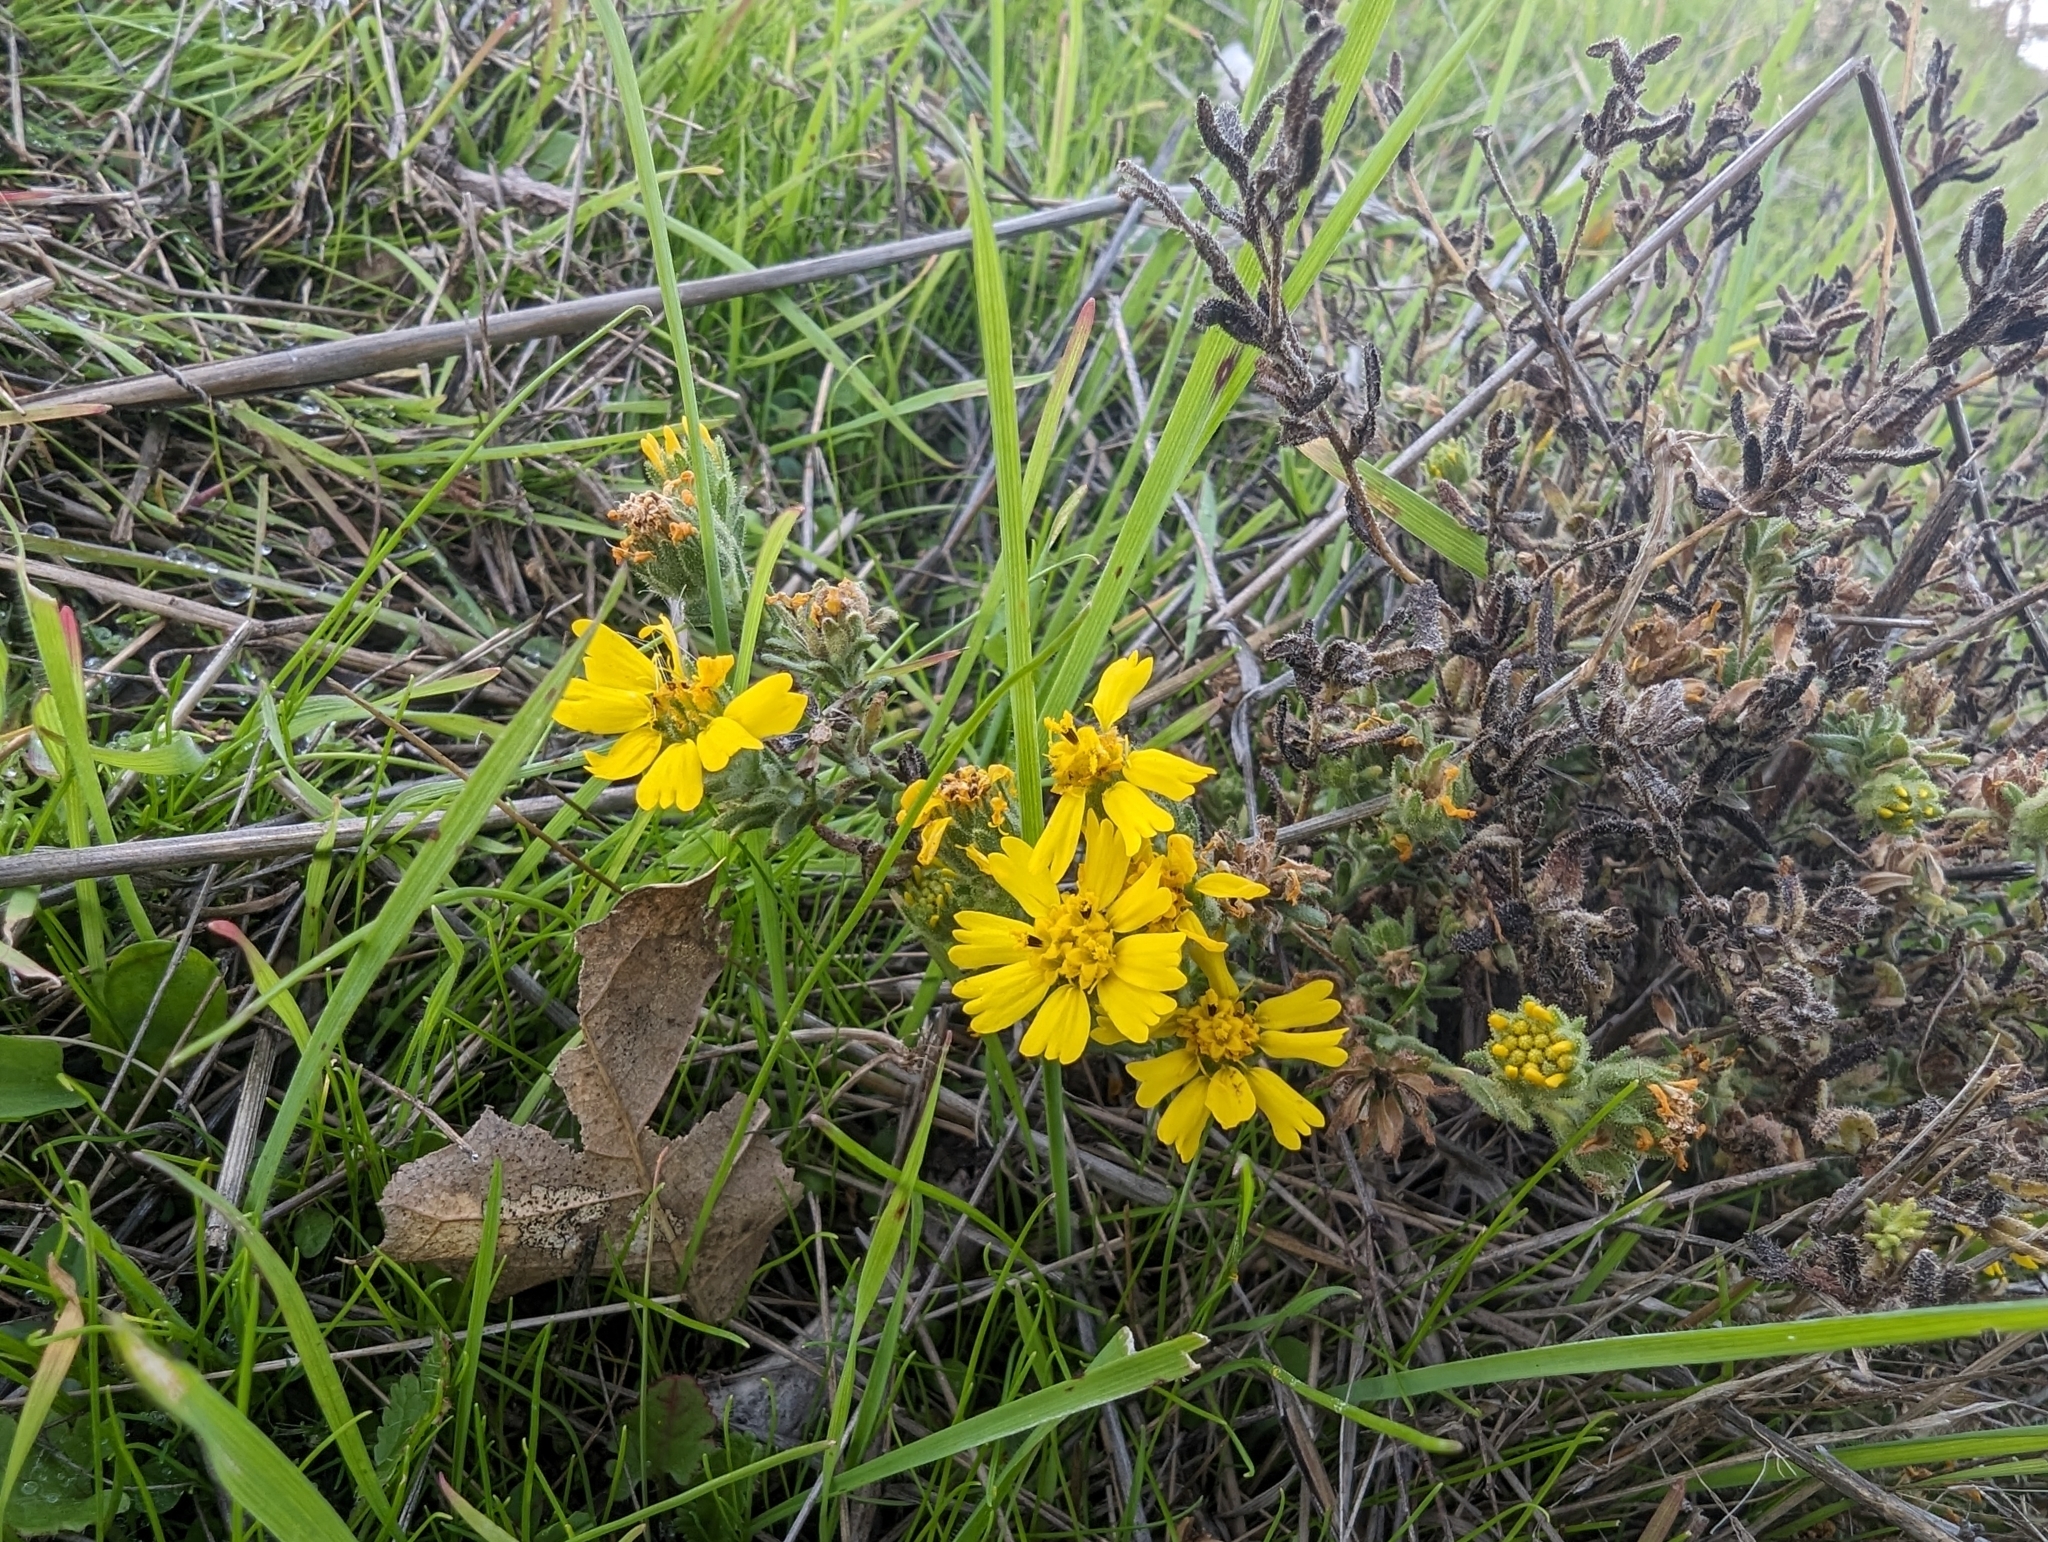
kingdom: Plantae
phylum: Tracheophyta
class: Magnoliopsida
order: Asterales
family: Asteraceae
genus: Deinandra
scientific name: Deinandra corymbosa
